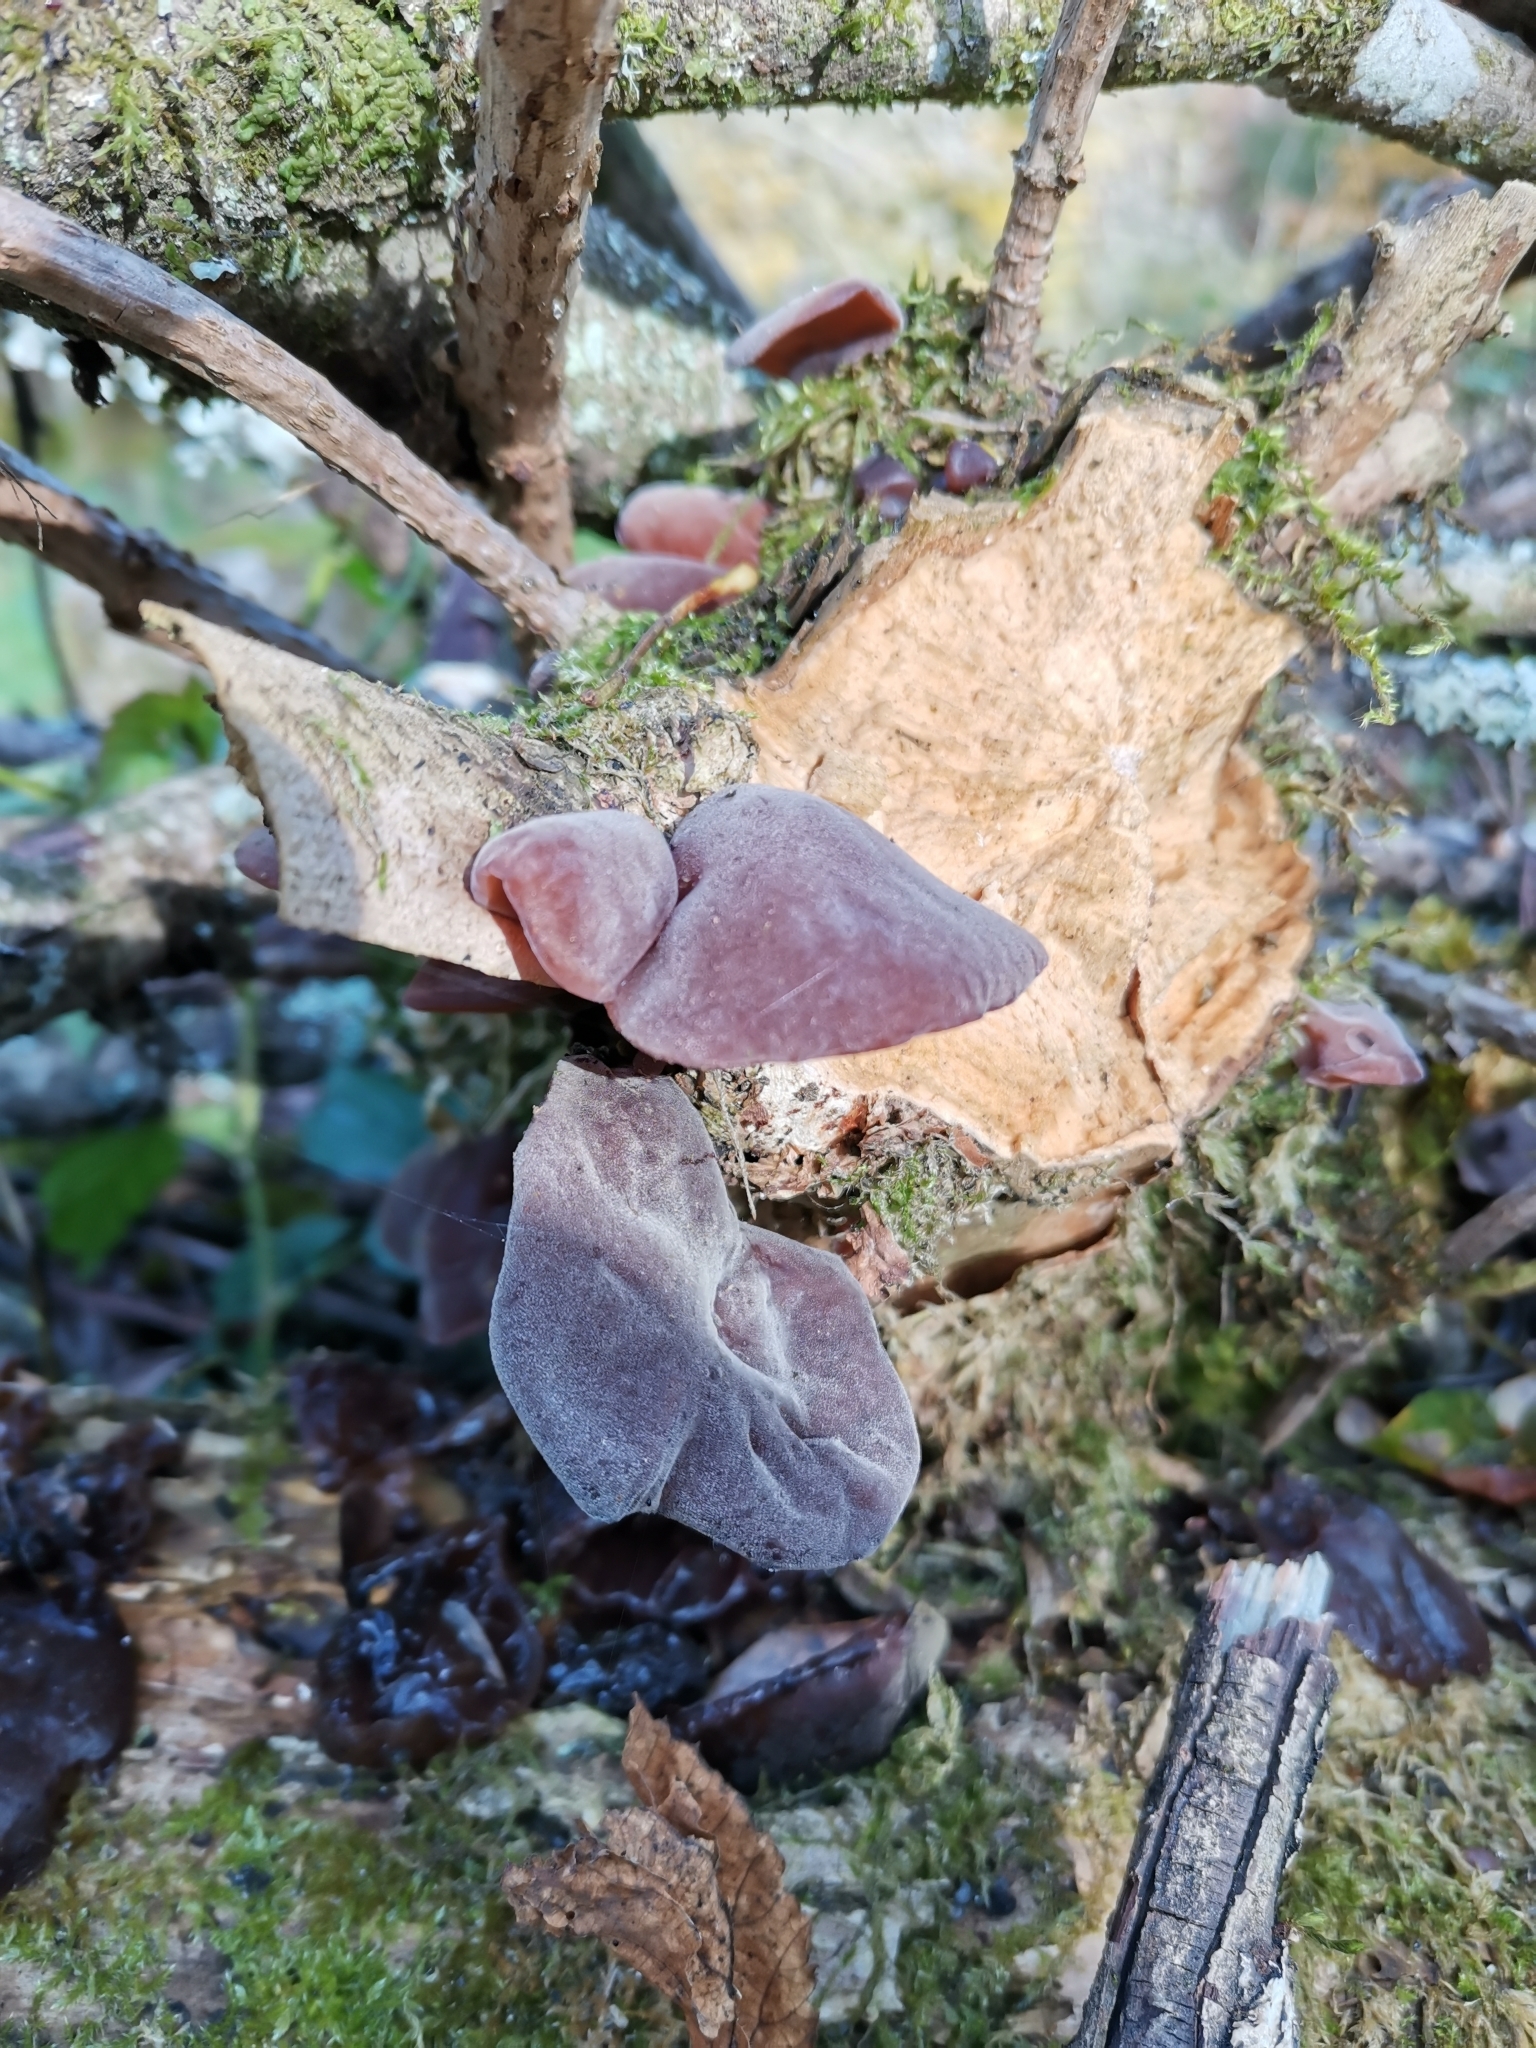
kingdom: Fungi
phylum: Basidiomycota
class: Agaricomycetes
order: Auriculariales
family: Auriculariaceae
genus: Auricularia
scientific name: Auricularia auricula-judae
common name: Jelly ear
